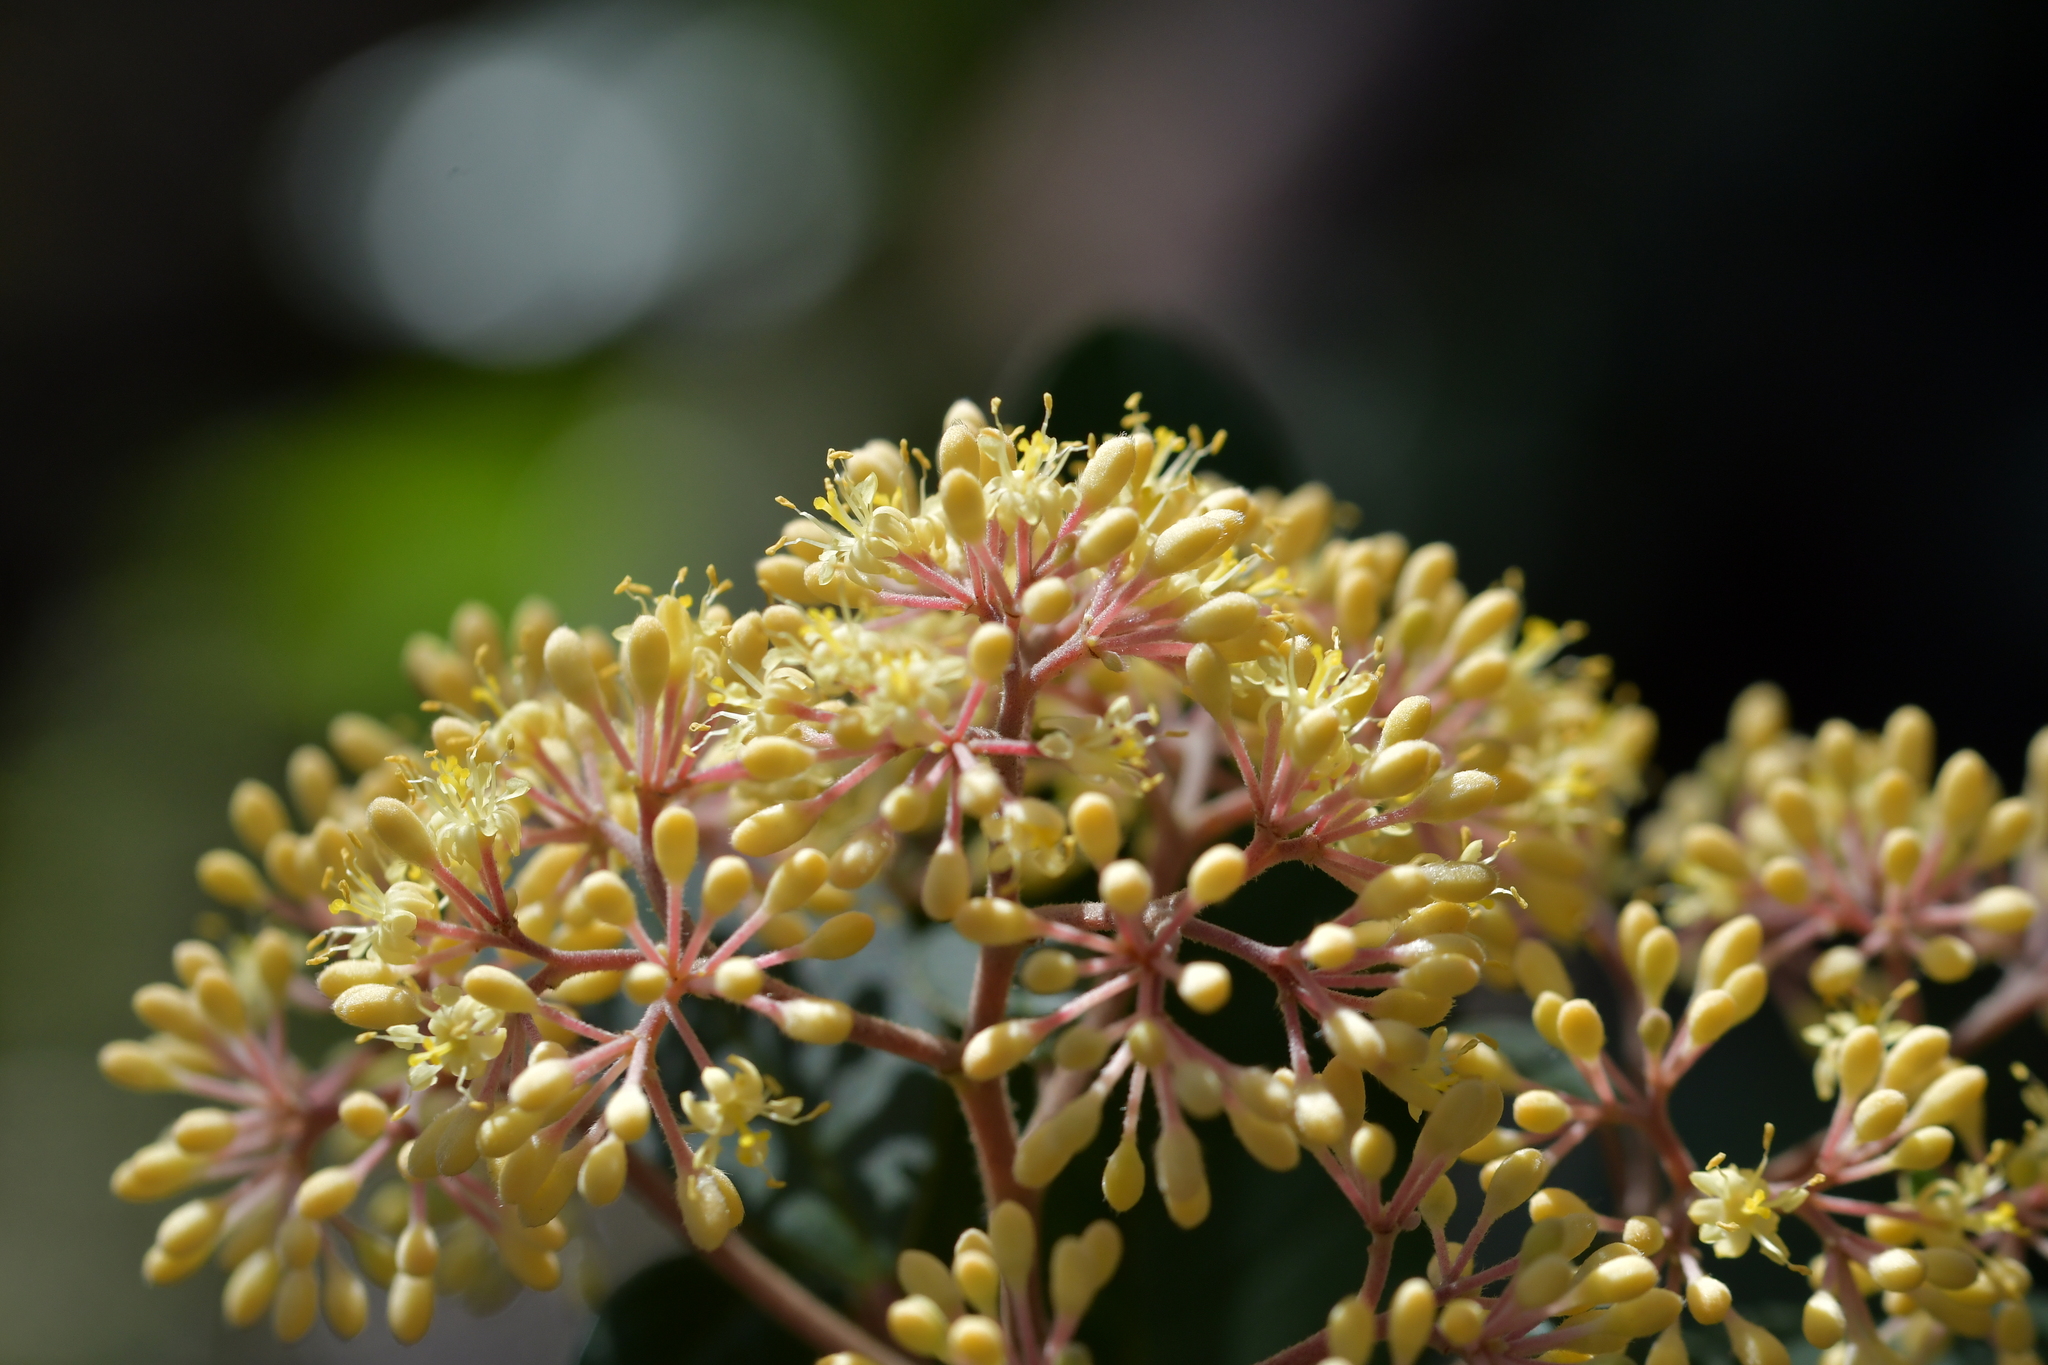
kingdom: Plantae
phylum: Tracheophyta
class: Magnoliopsida
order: Rosales
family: Rhamnaceae
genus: Pomaderris
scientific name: Pomaderris kumeraho
